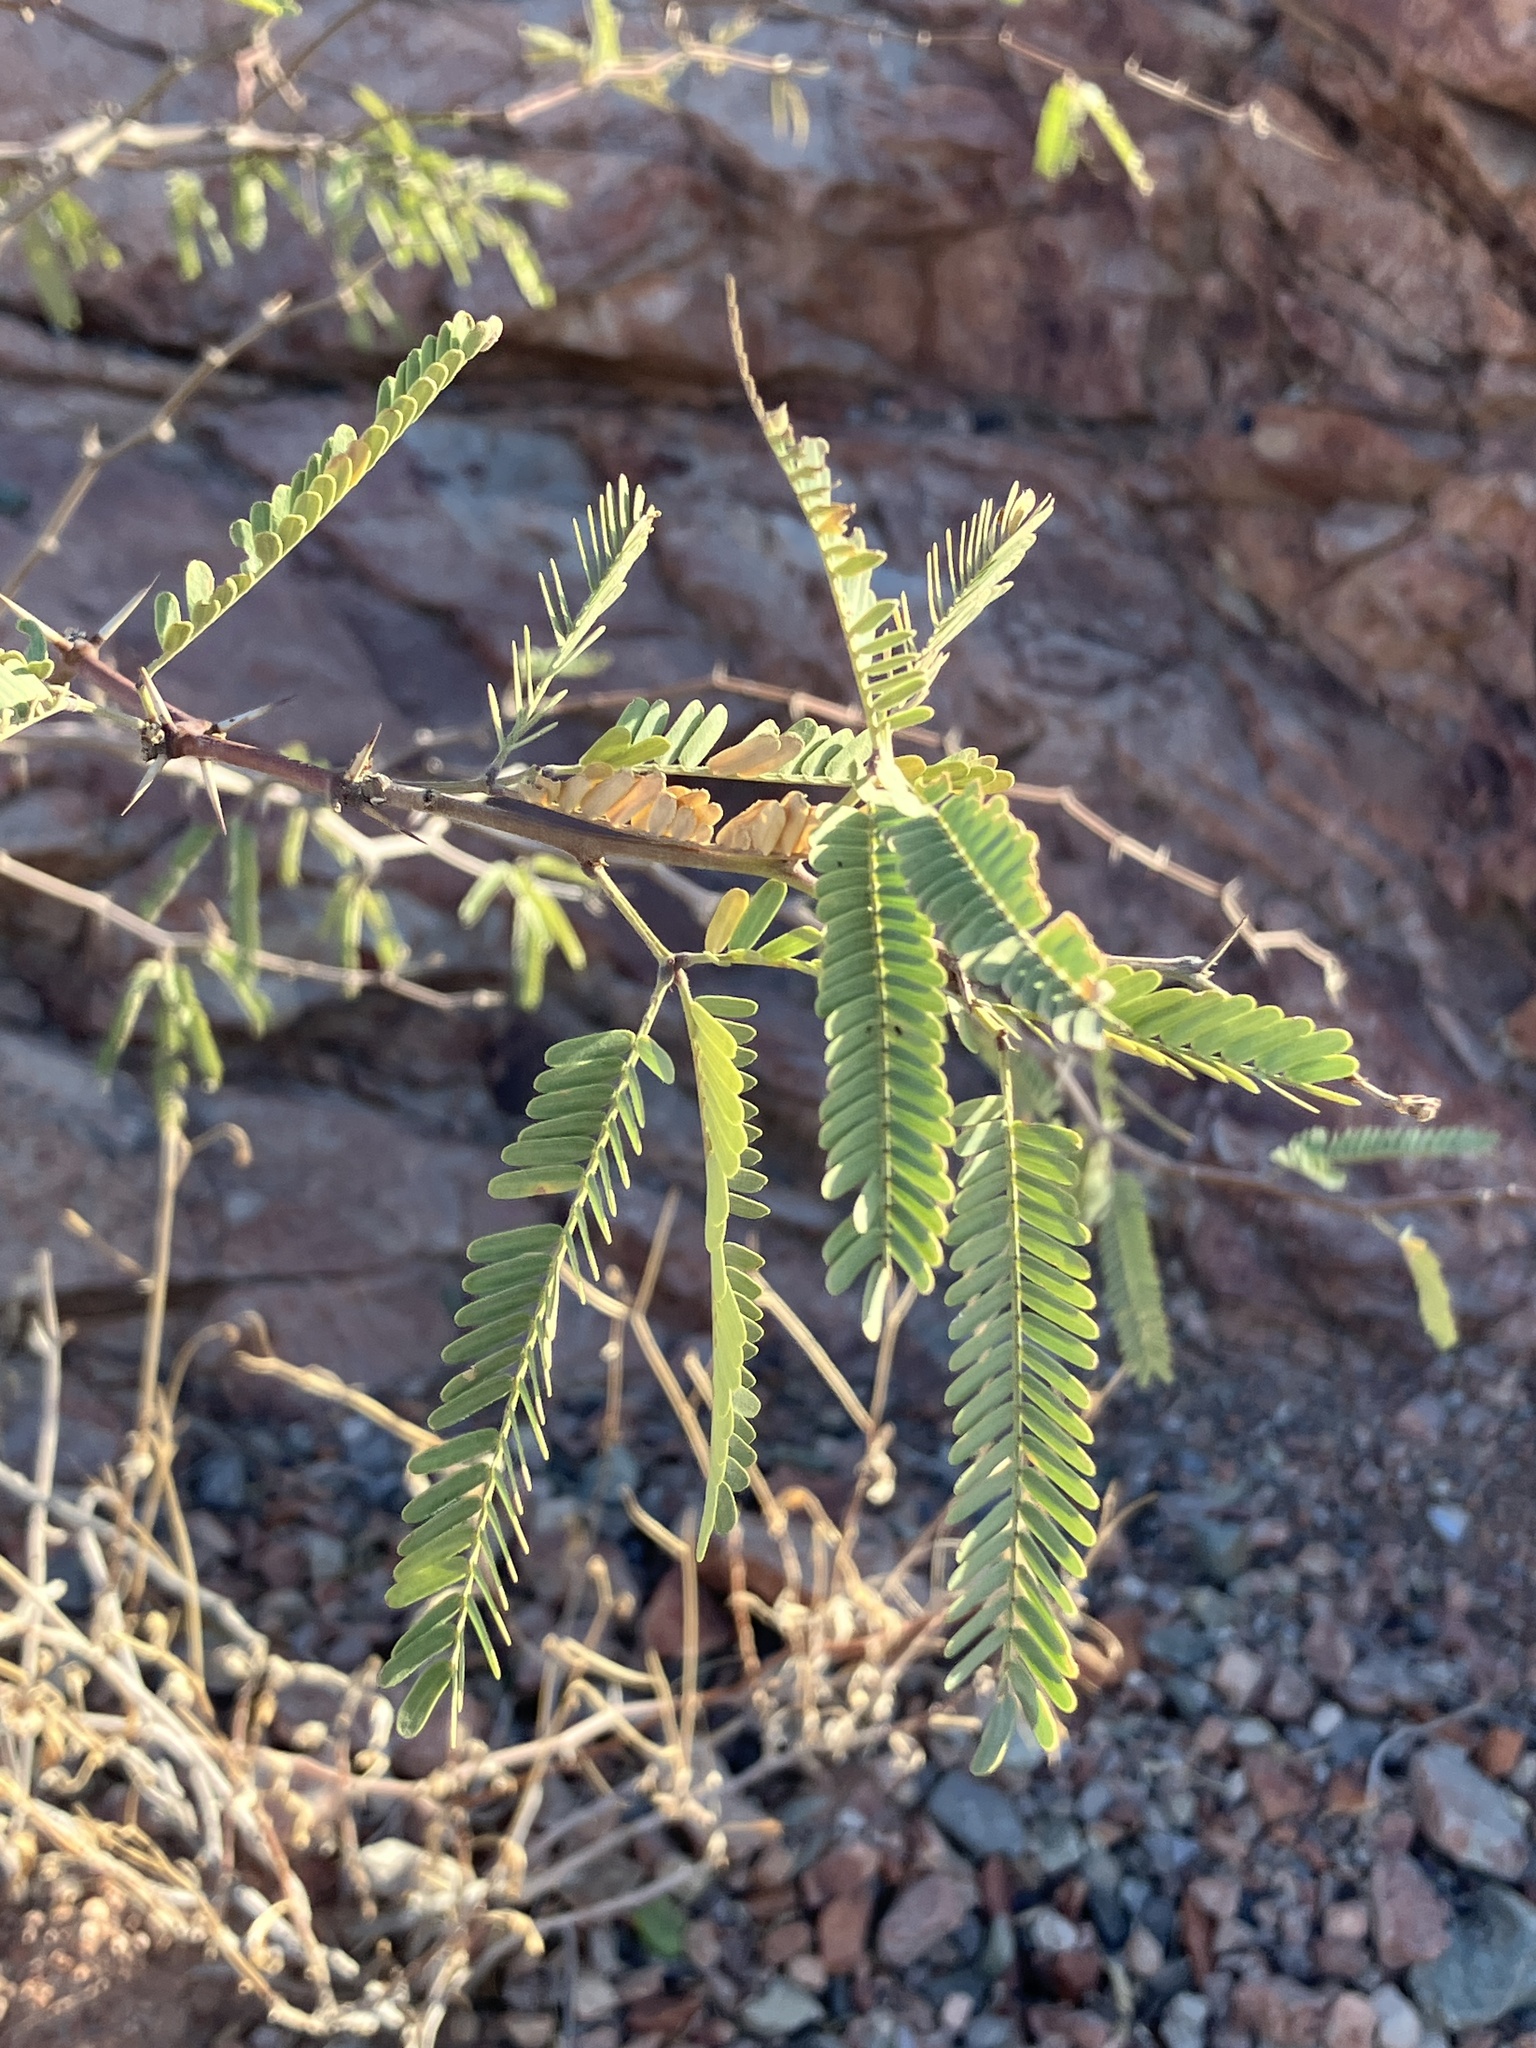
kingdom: Plantae
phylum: Tracheophyta
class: Magnoliopsida
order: Fabales
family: Fabaceae
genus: Prosopis
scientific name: Prosopis velutina
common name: Velvet mesquite
